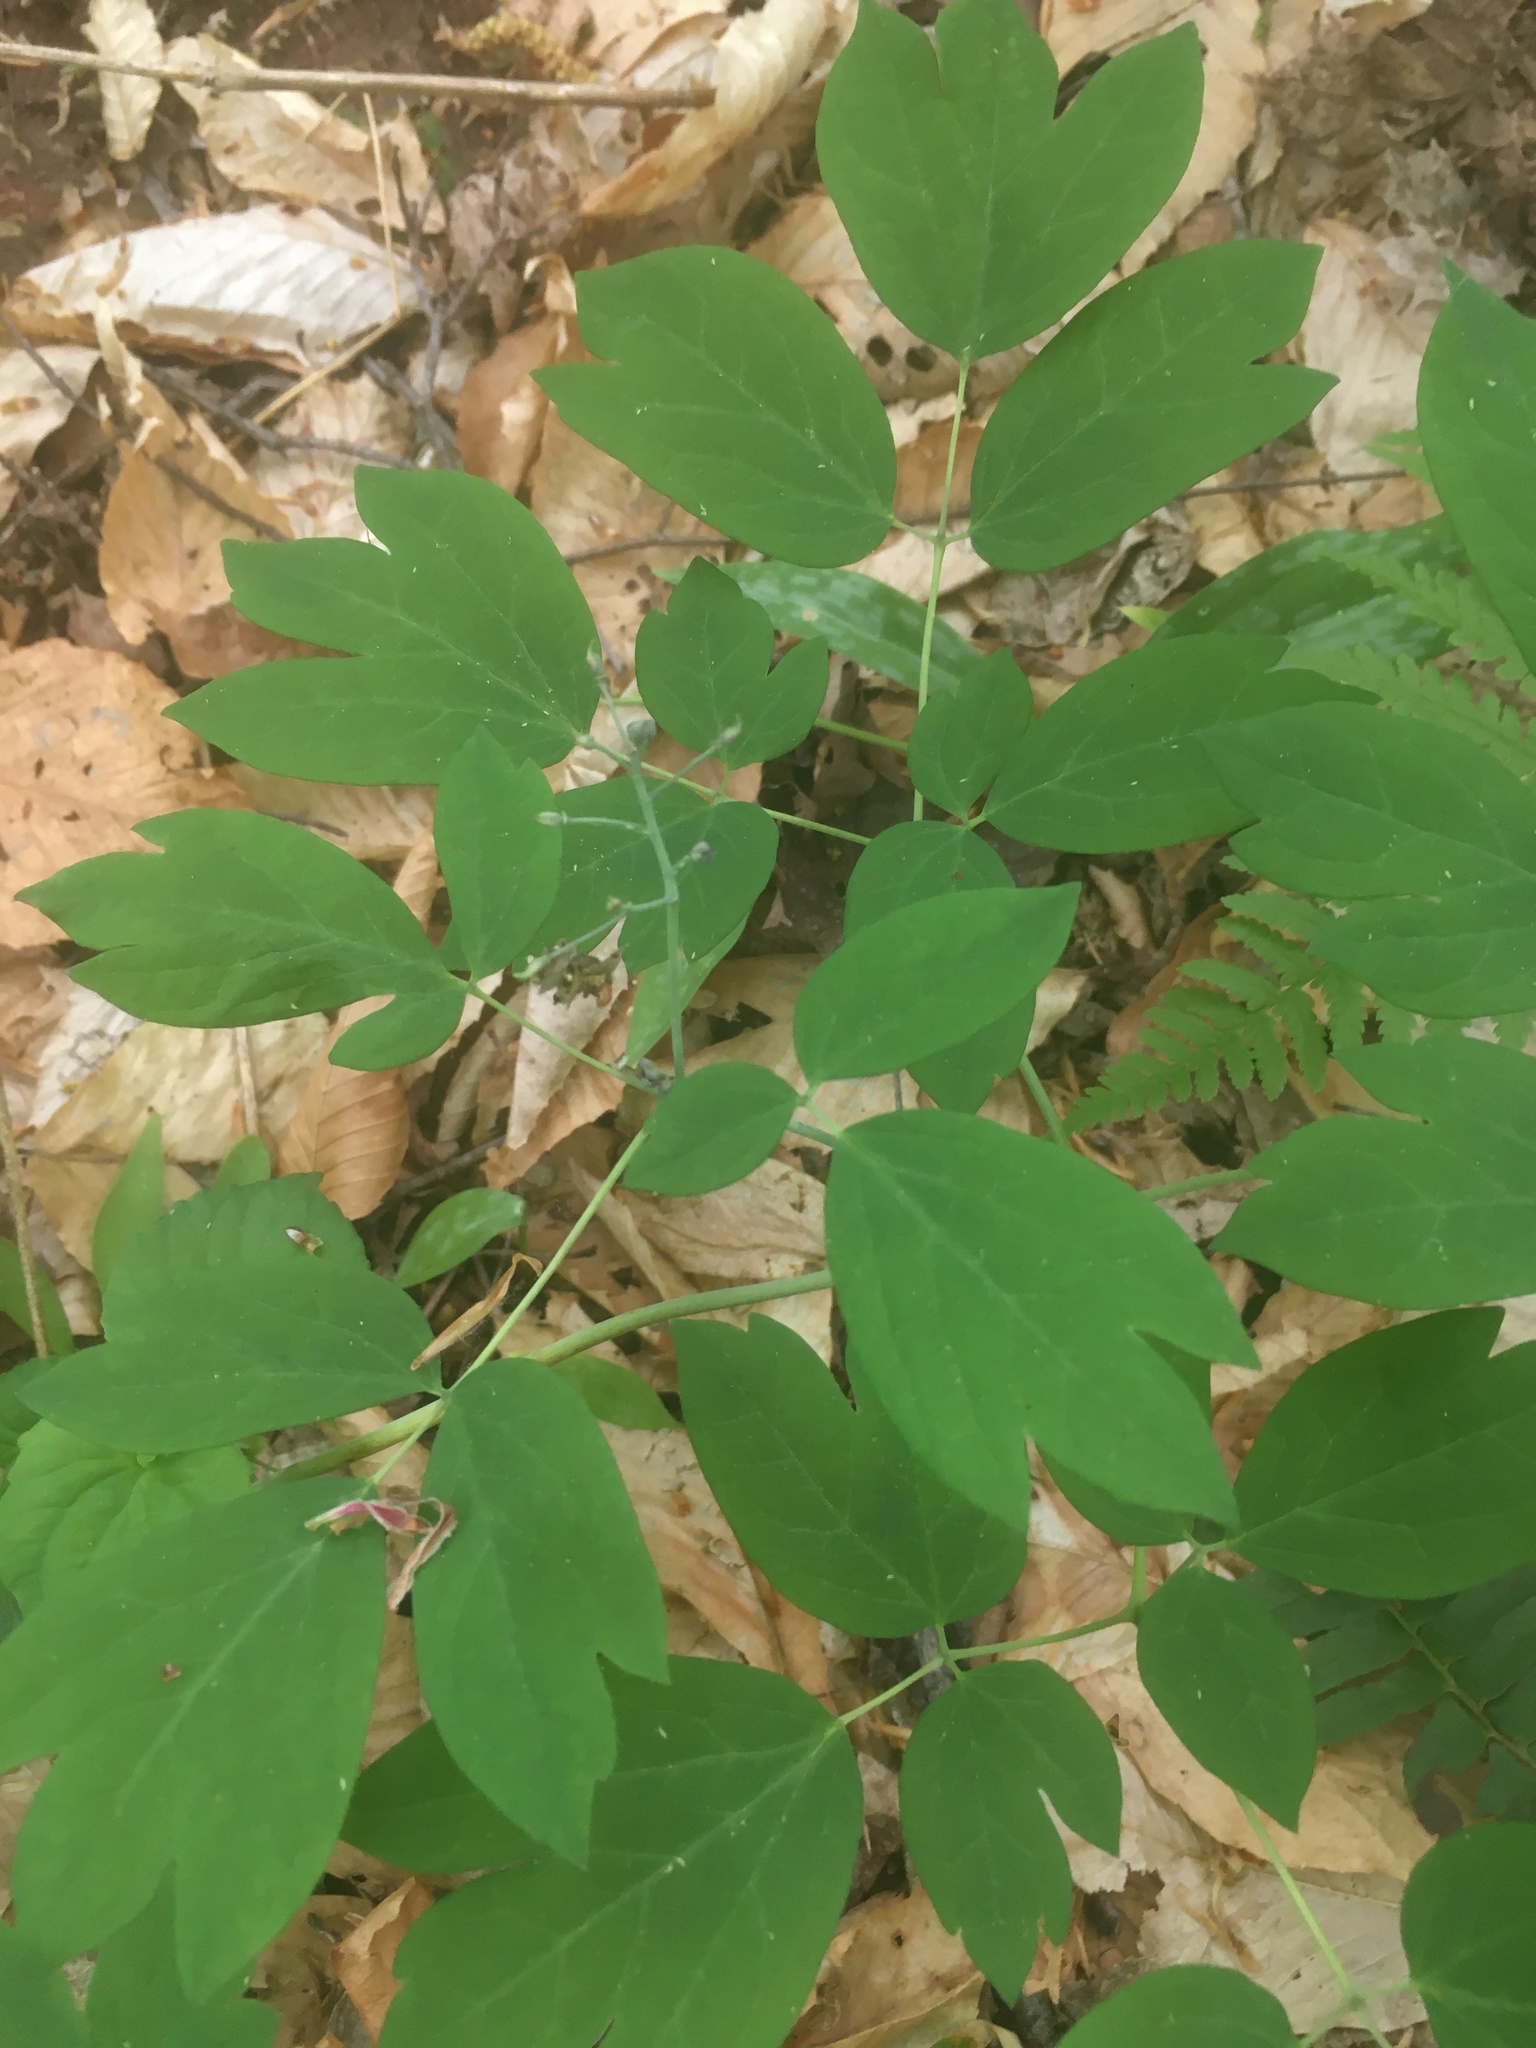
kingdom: Plantae
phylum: Tracheophyta
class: Magnoliopsida
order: Ranunculales
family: Berberidaceae
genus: Caulophyllum
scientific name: Caulophyllum giganteum
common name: Blue cohosh
